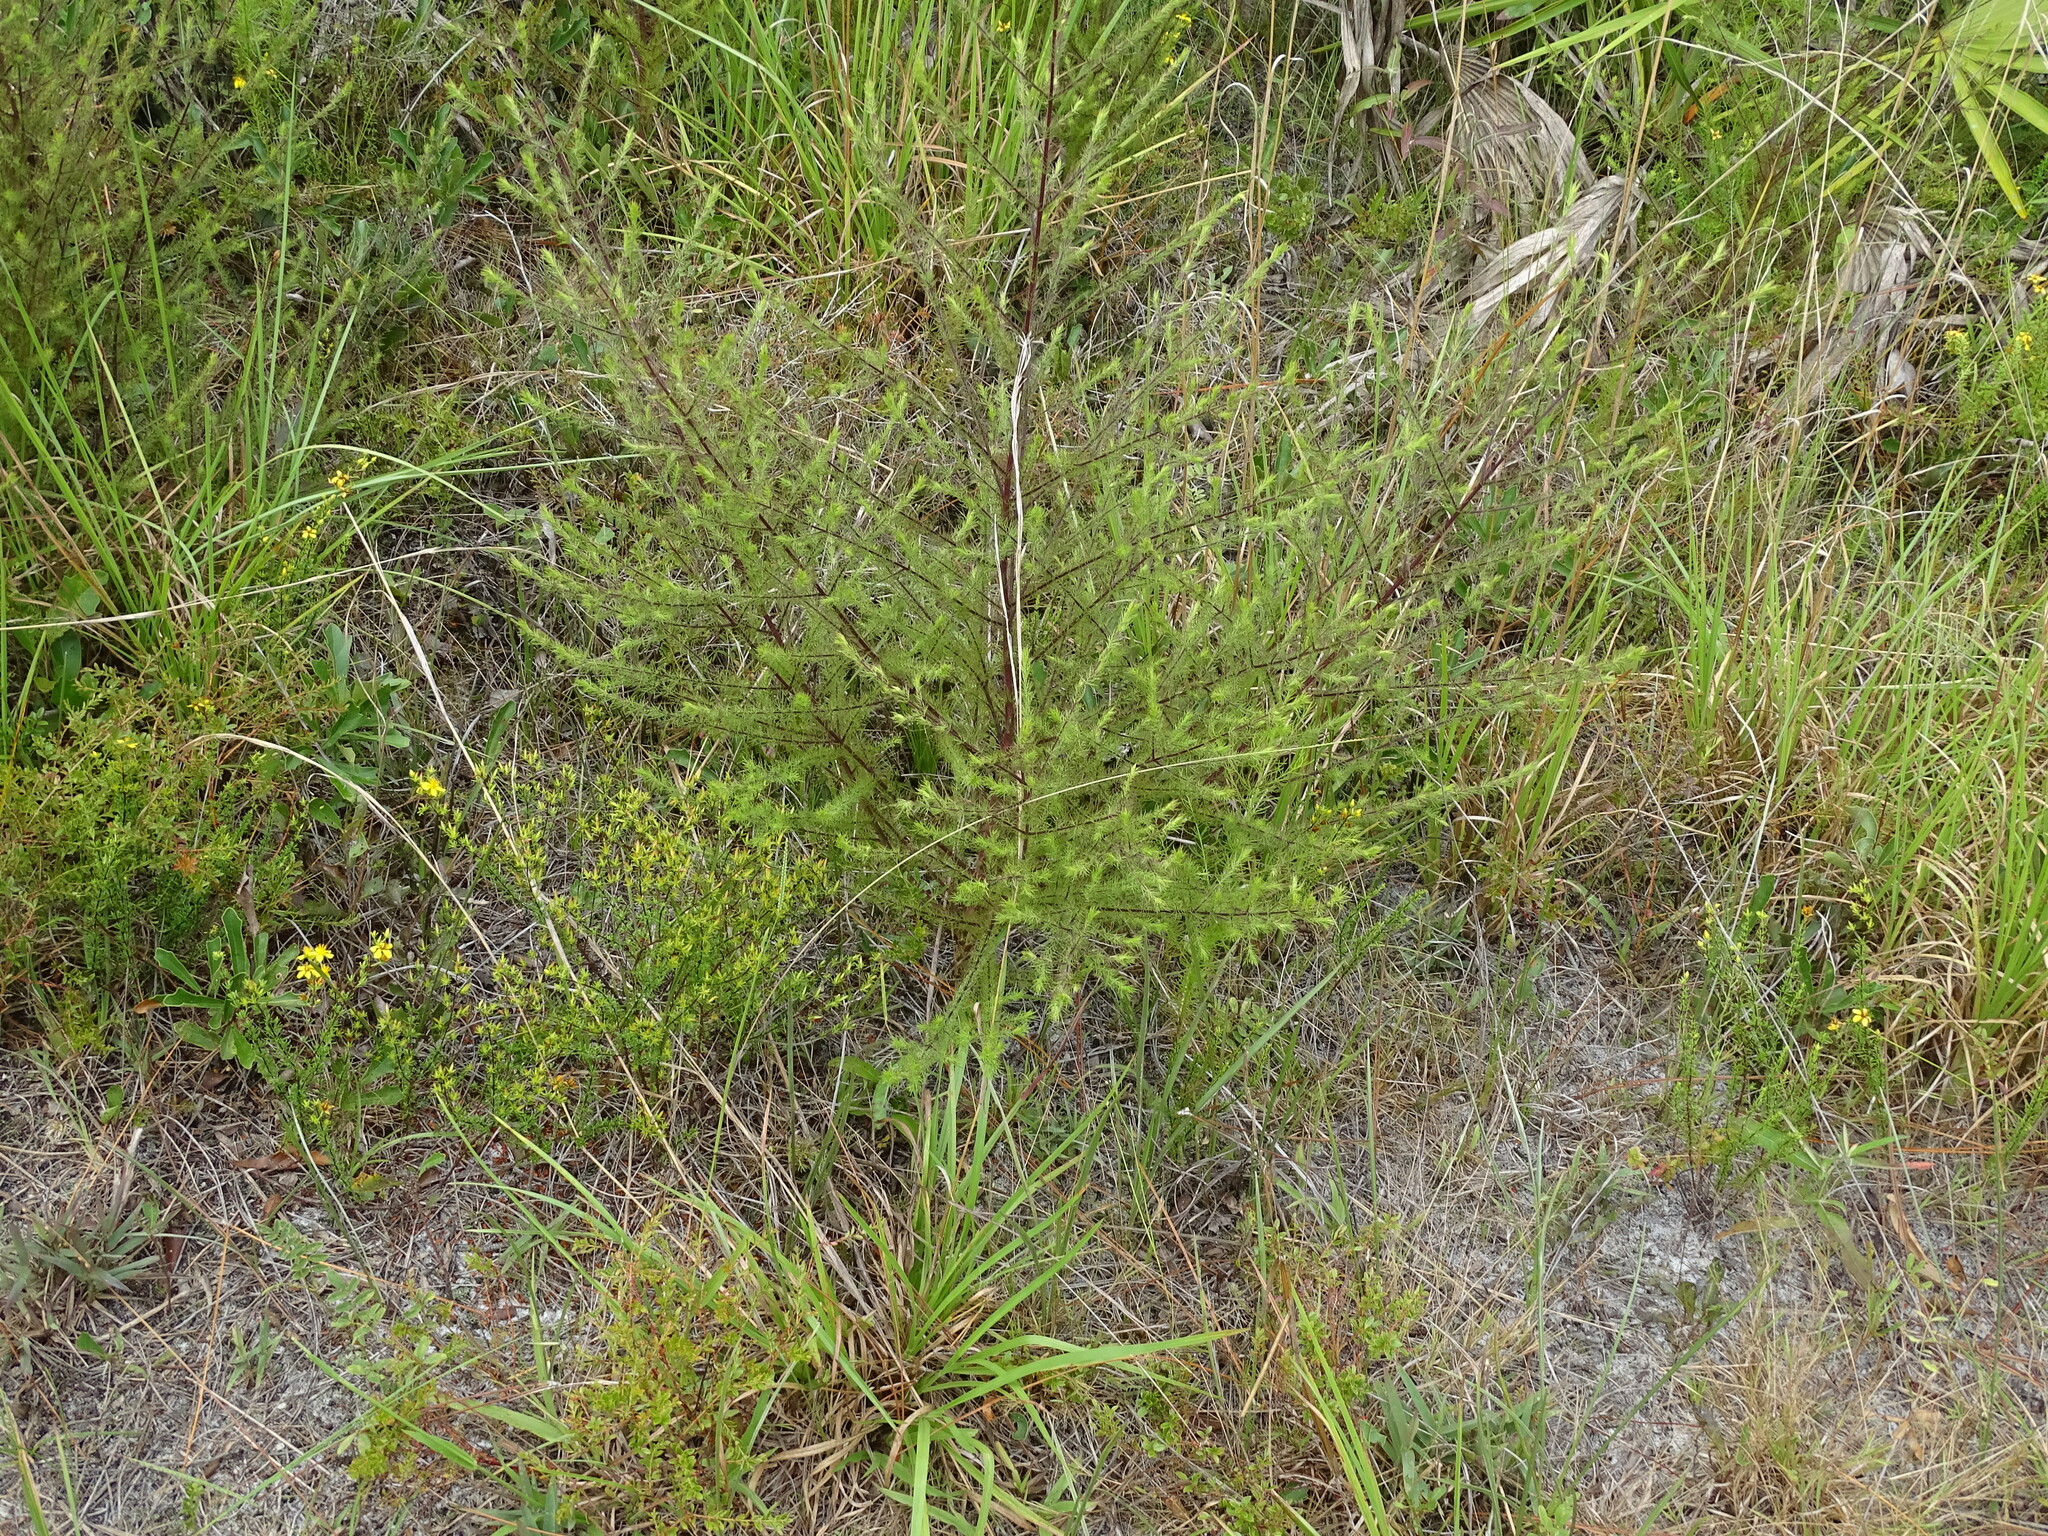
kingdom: Plantae
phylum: Tracheophyta
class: Magnoliopsida
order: Lamiales
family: Orobanchaceae
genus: Seymeria
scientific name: Seymeria cassioides
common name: Yaupon black-senna
